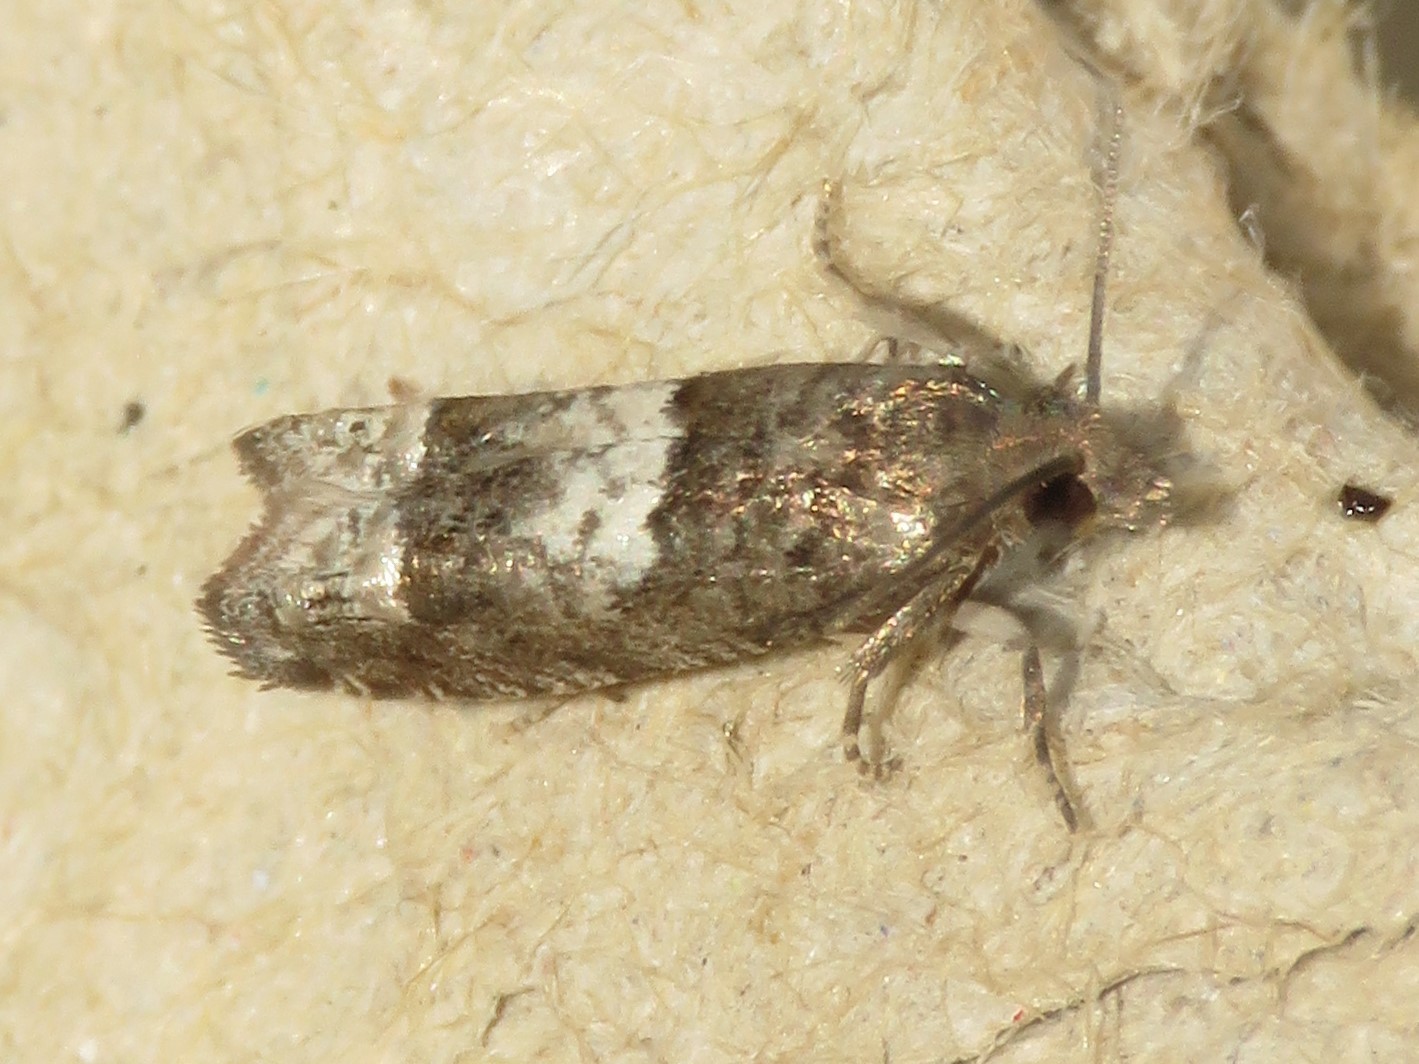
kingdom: Animalia
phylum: Arthropoda
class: Insecta
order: Lepidoptera
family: Tortricidae
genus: Eucosma
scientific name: Eucosma parmatana
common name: Aster eucosma moth
